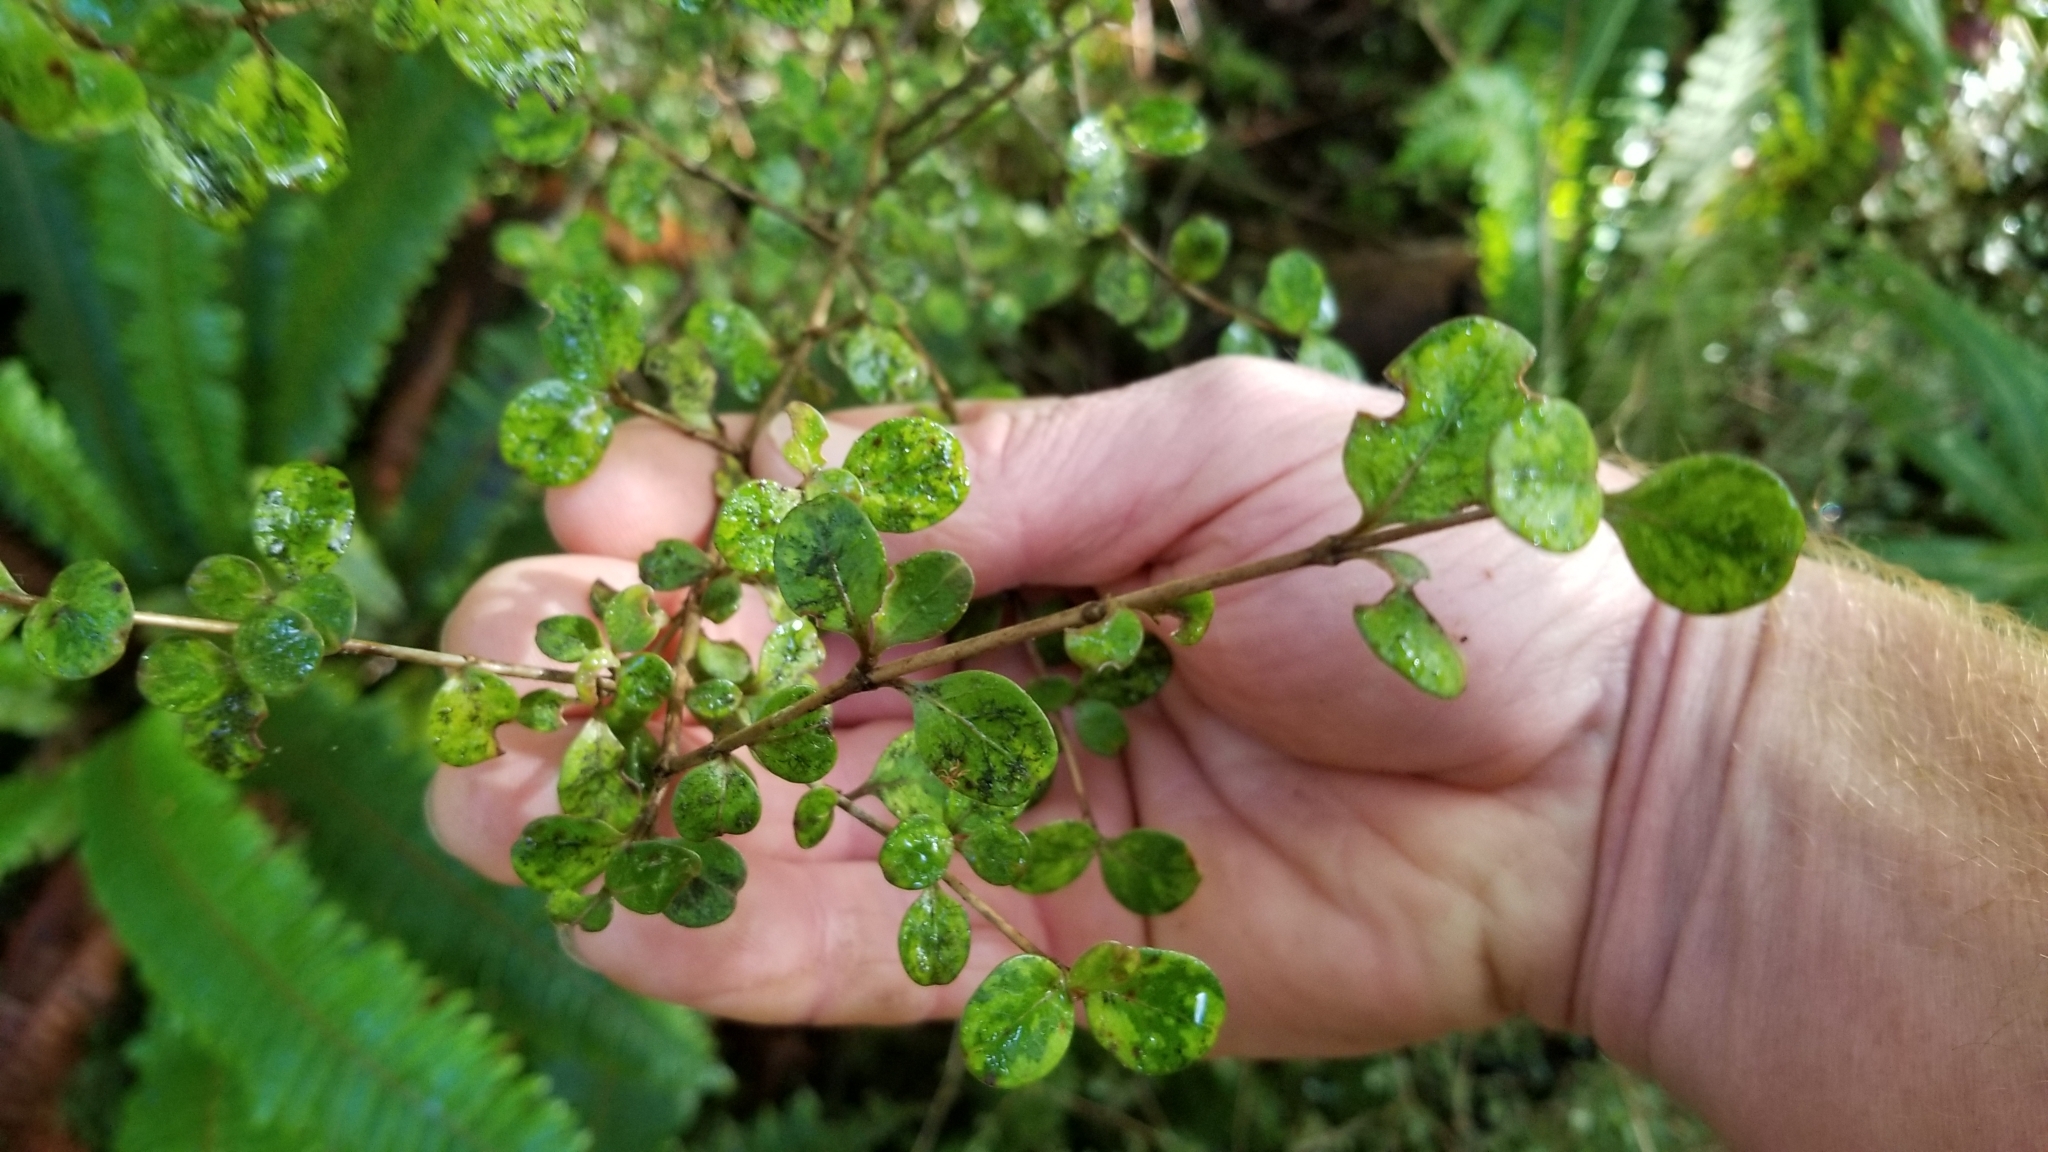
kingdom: Plantae
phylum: Tracheophyta
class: Magnoliopsida
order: Gentianales
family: Rubiaceae
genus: Coprosma
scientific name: Coprosma tenuicaulis
